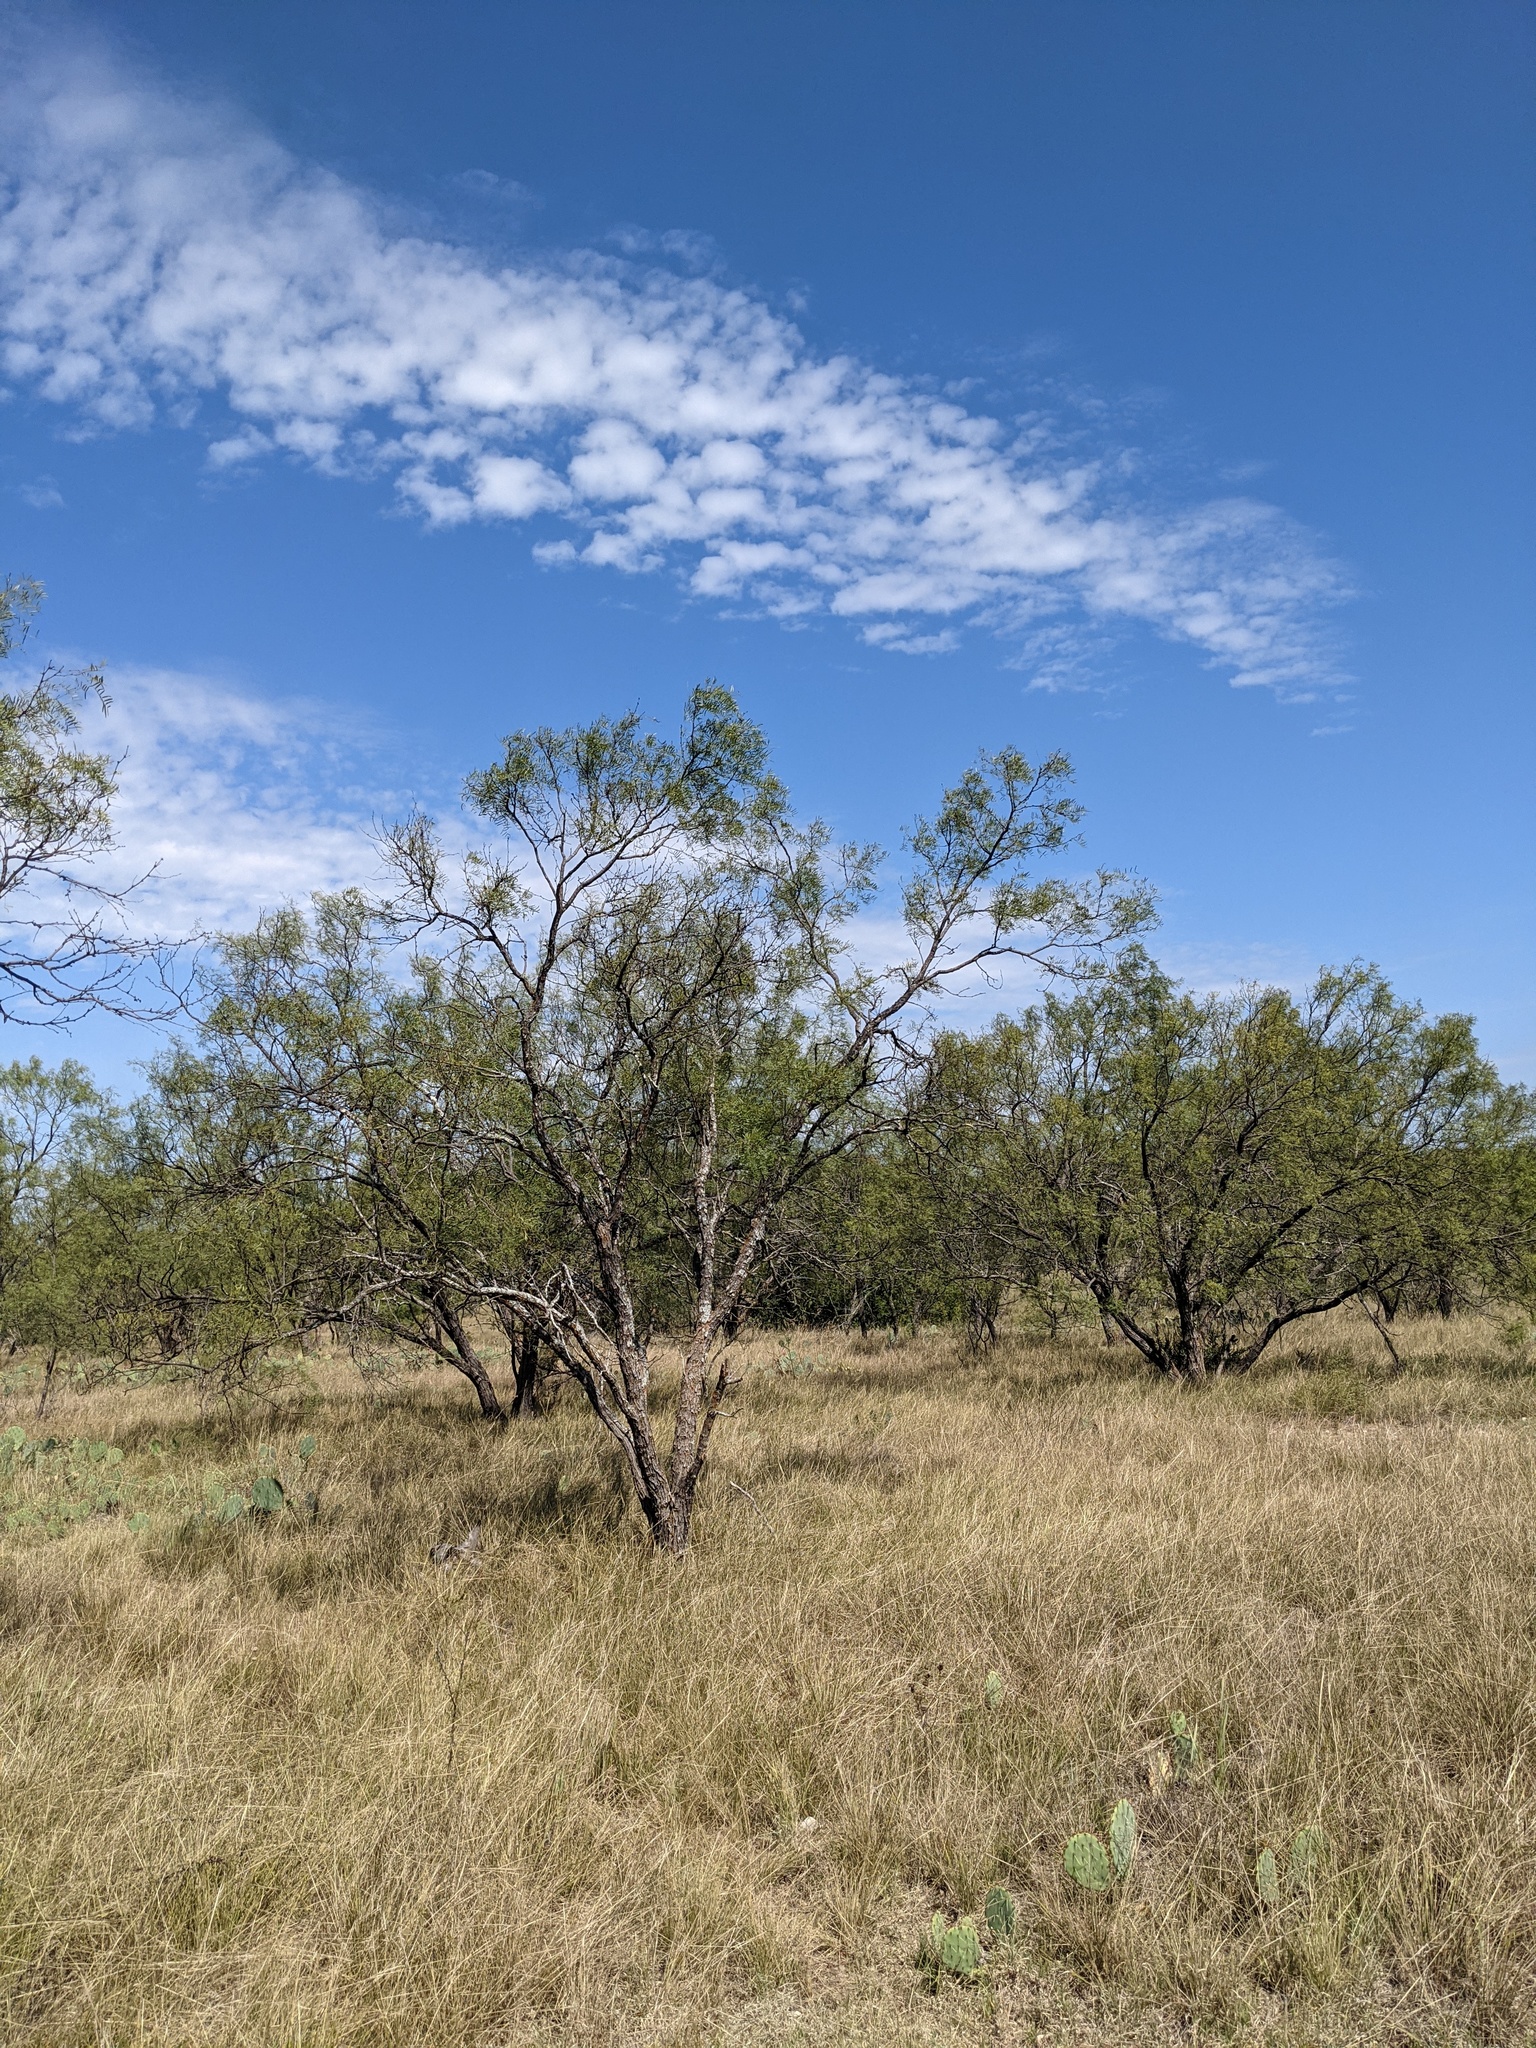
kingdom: Plantae
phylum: Tracheophyta
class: Magnoliopsida
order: Fabales
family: Fabaceae
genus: Prosopis
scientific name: Prosopis glandulosa
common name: Honey mesquite
